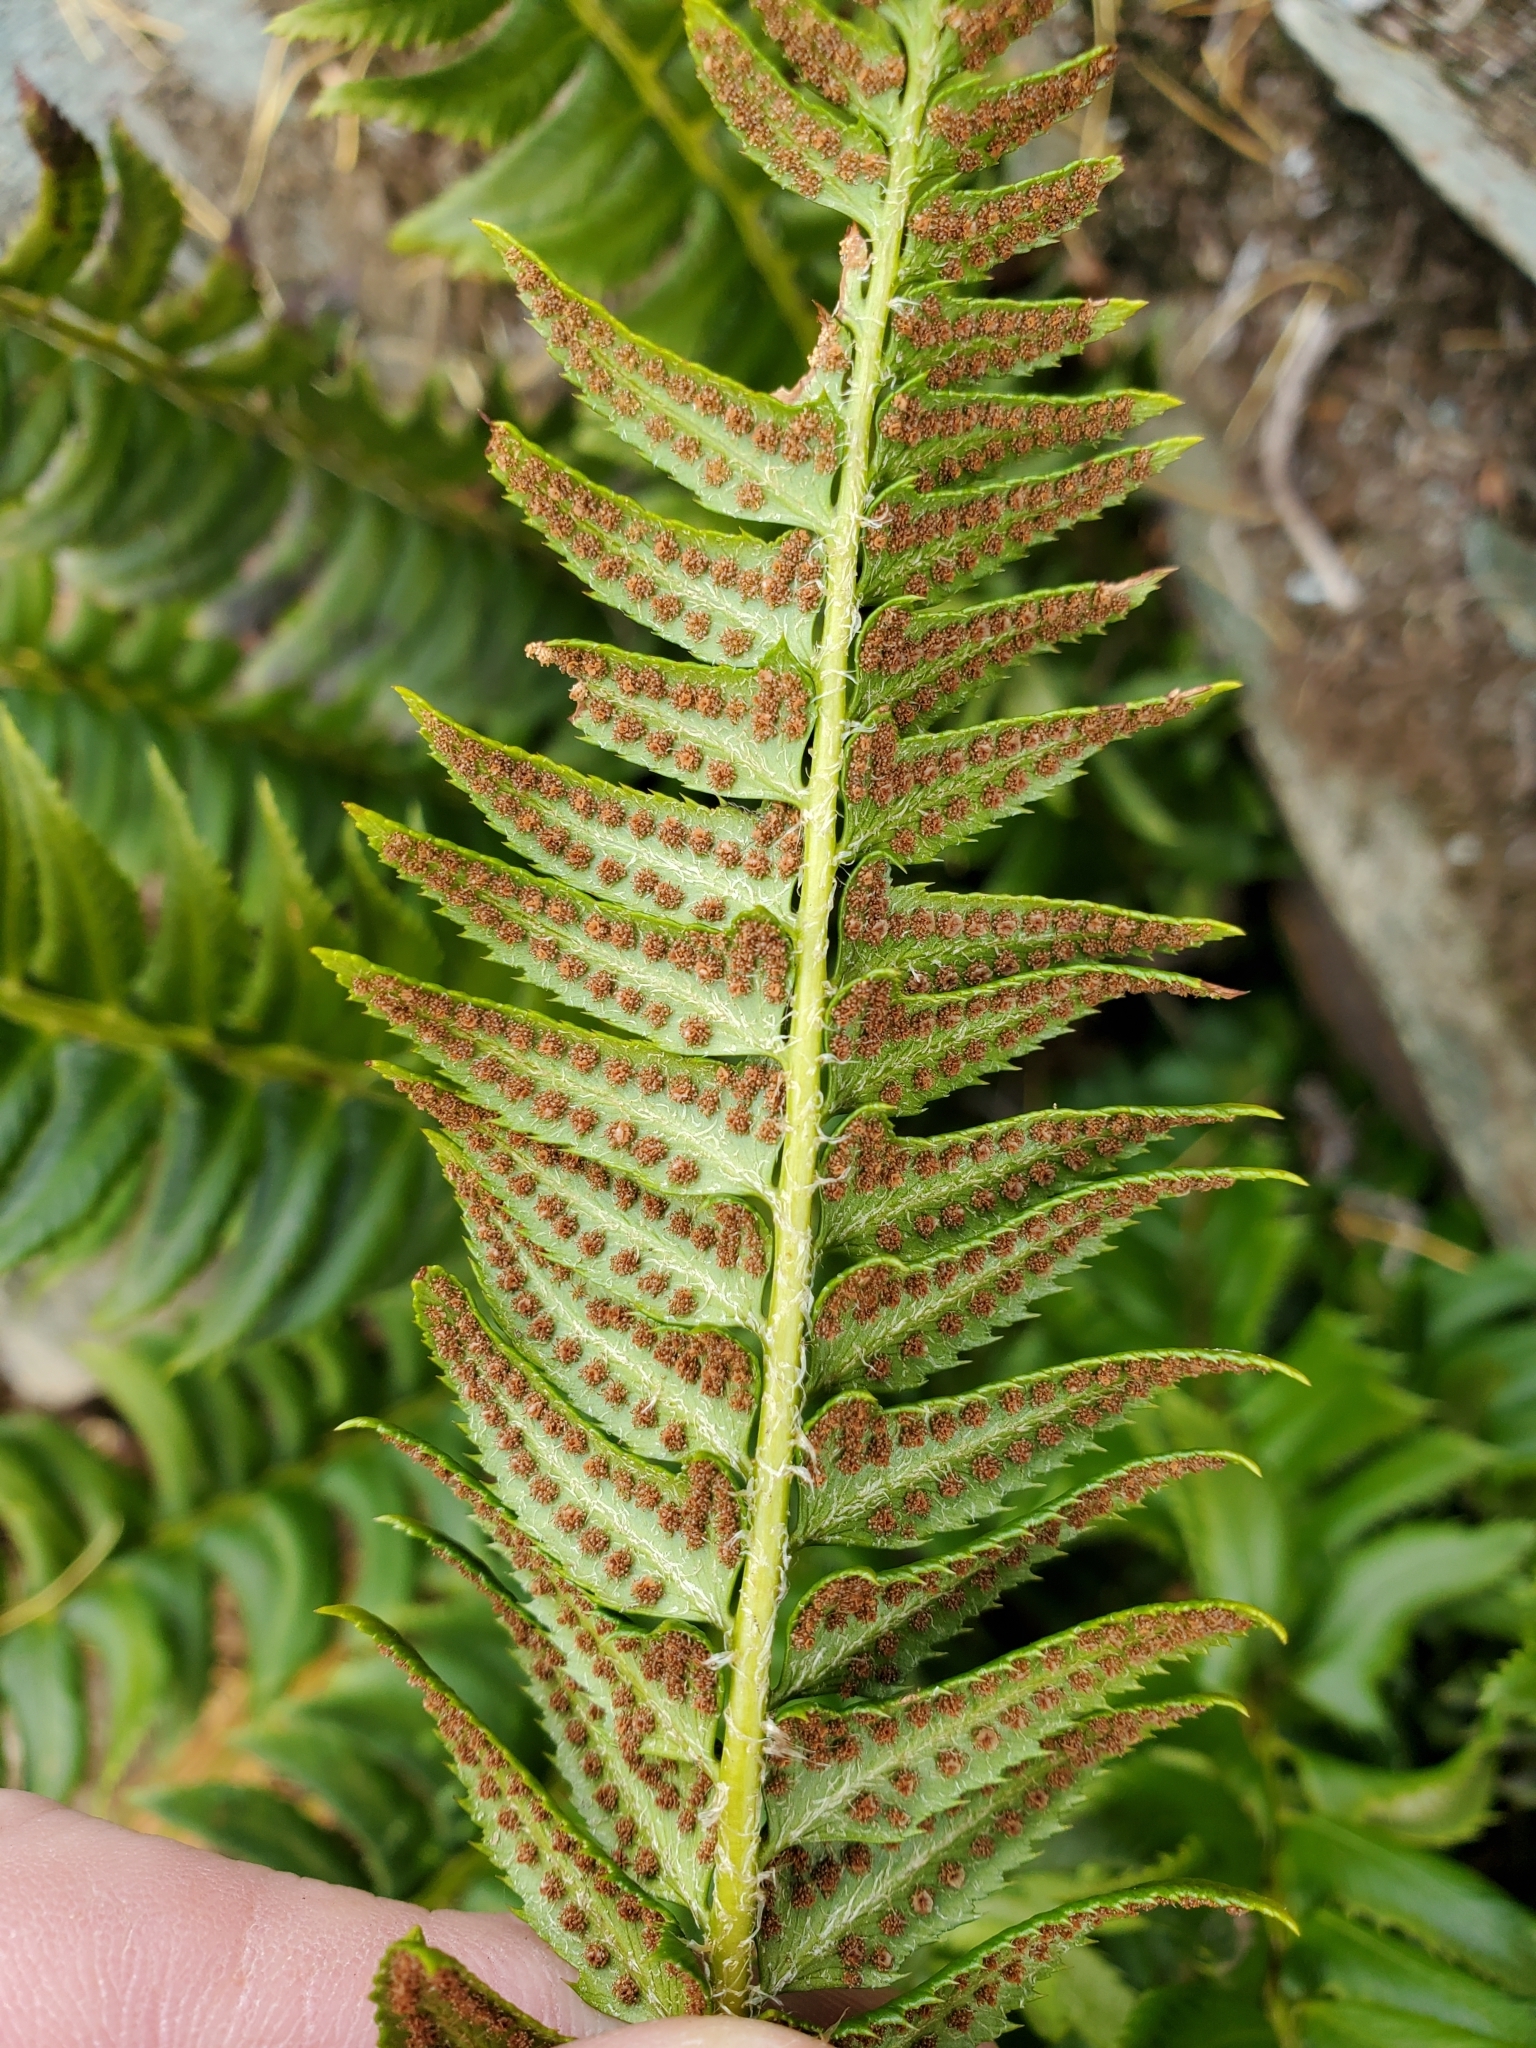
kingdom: Plantae
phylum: Tracheophyta
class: Polypodiopsida
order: Polypodiales
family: Dryopteridaceae
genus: Polystichum
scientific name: Polystichum lonchitis
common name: Holly fern
